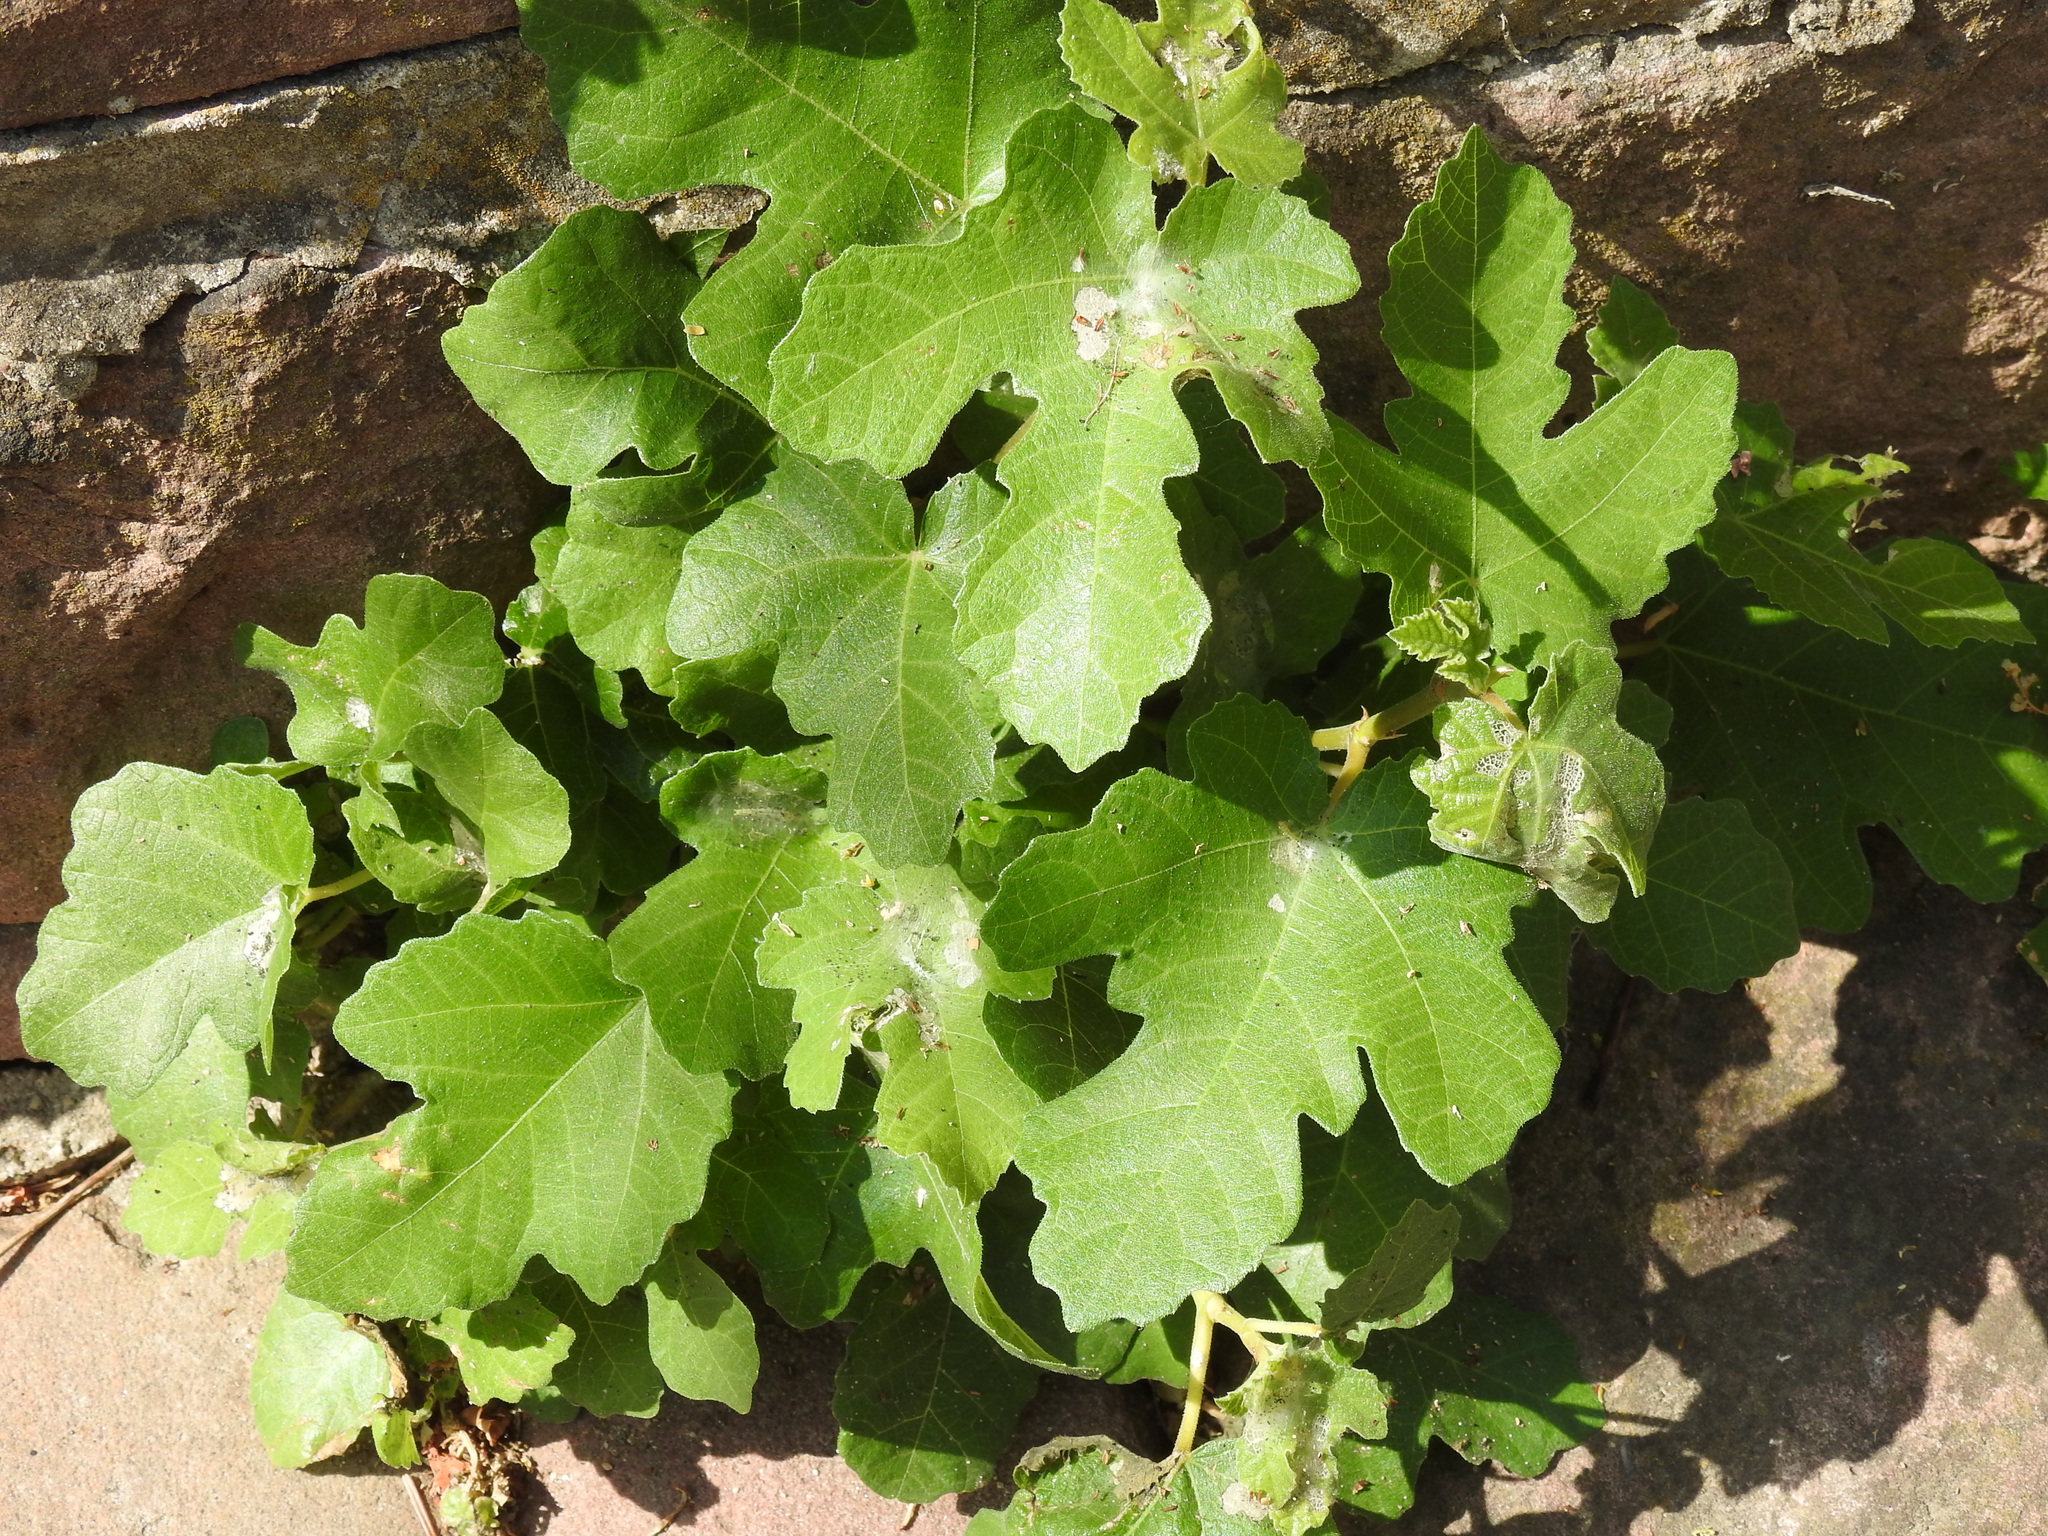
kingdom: Plantae
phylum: Tracheophyta
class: Magnoliopsida
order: Rosales
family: Moraceae
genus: Ficus
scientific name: Ficus carica
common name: Fig
